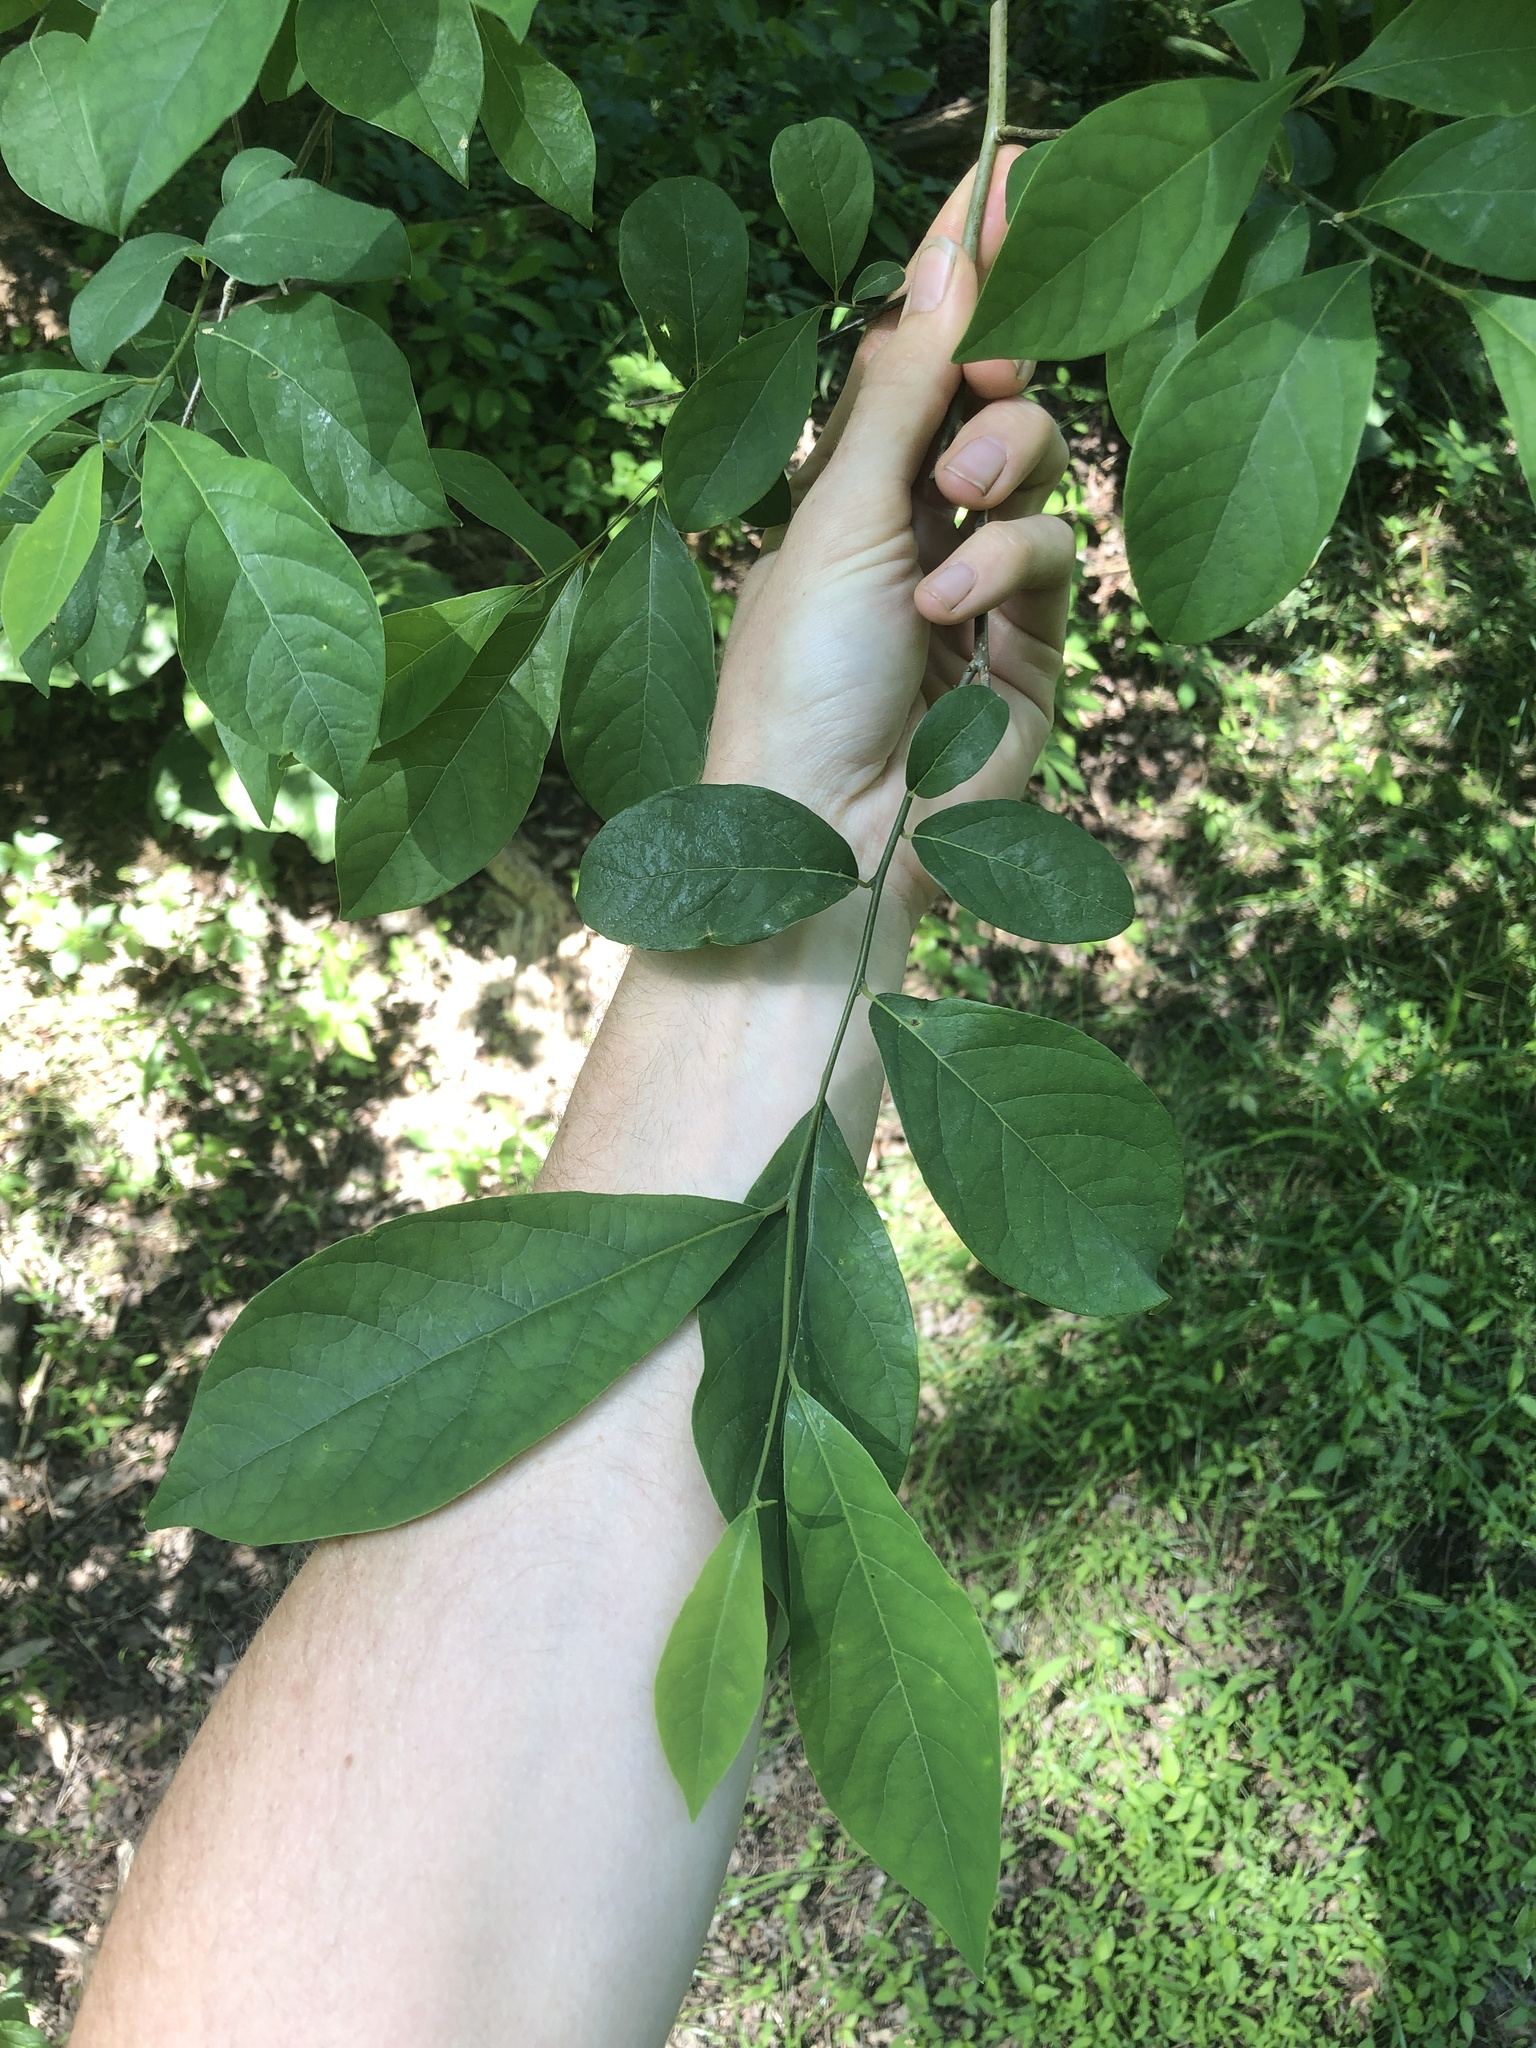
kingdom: Plantae
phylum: Tracheophyta
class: Magnoliopsida
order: Laurales
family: Lauraceae
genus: Lindera
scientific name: Lindera benzoin
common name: Spicebush
